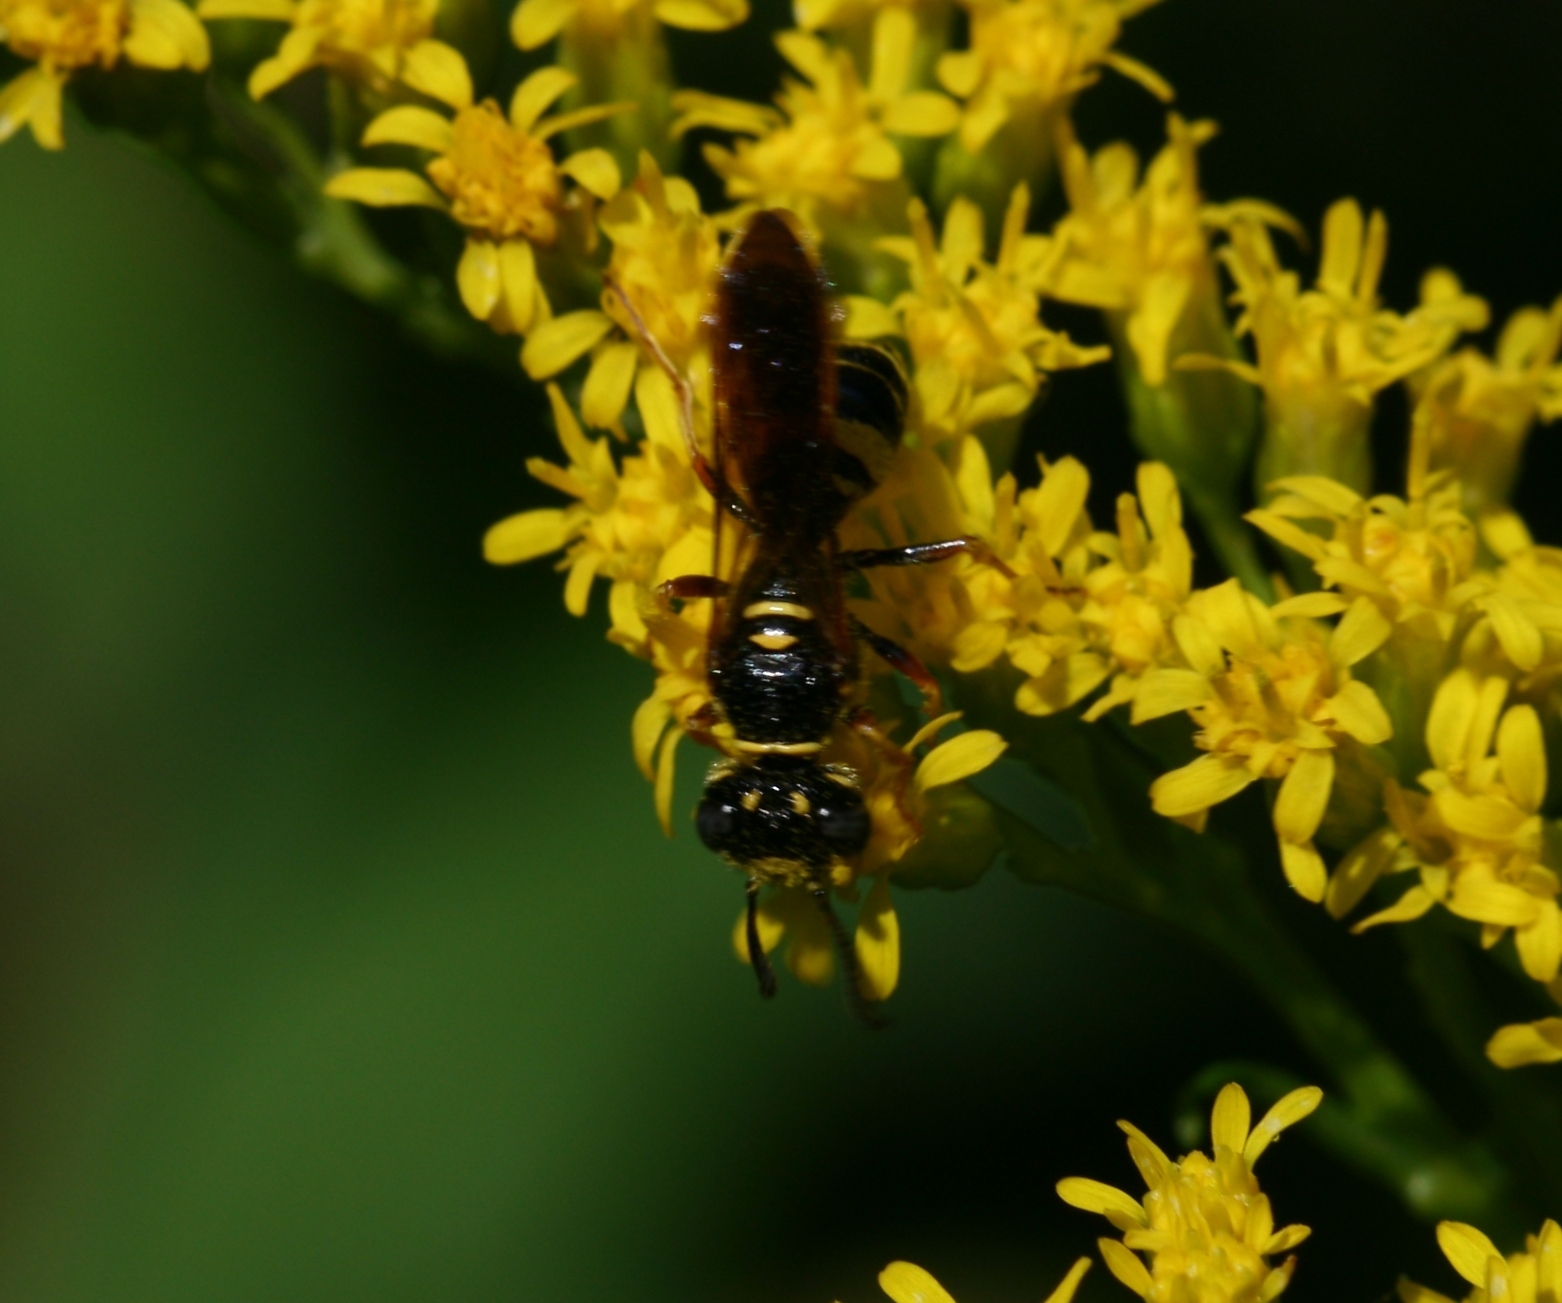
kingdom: Animalia
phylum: Arthropoda
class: Insecta
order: Hymenoptera
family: Crabronidae
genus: Philanthus
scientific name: Philanthus gibbosus
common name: Humped beewolf
